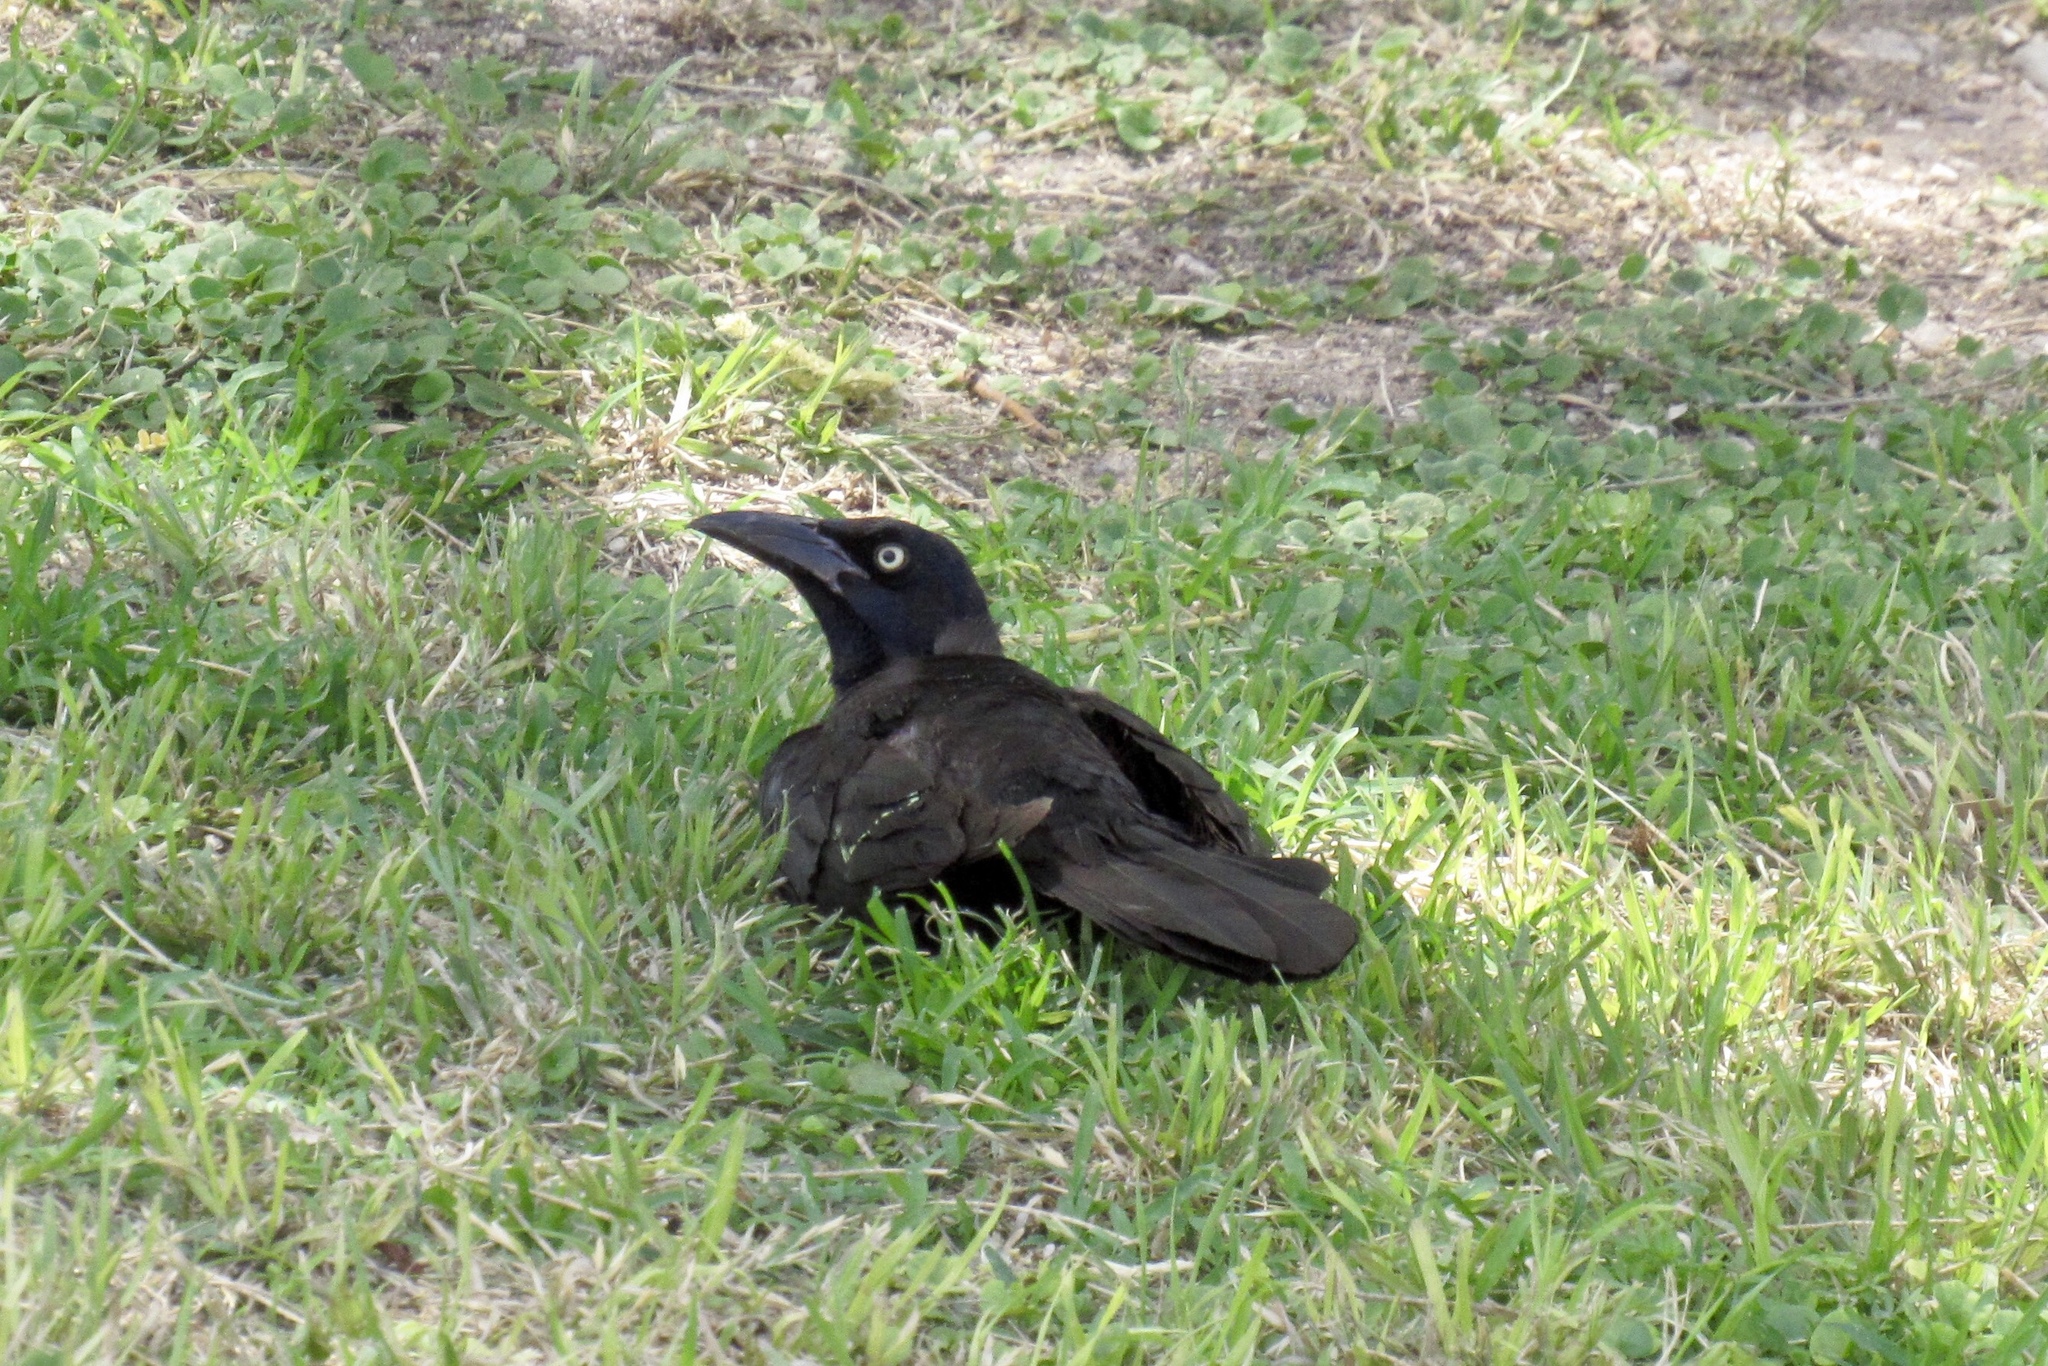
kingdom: Animalia
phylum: Chordata
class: Aves
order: Passeriformes
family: Icteridae
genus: Quiscalus
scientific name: Quiscalus mexicanus
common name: Great-tailed grackle
